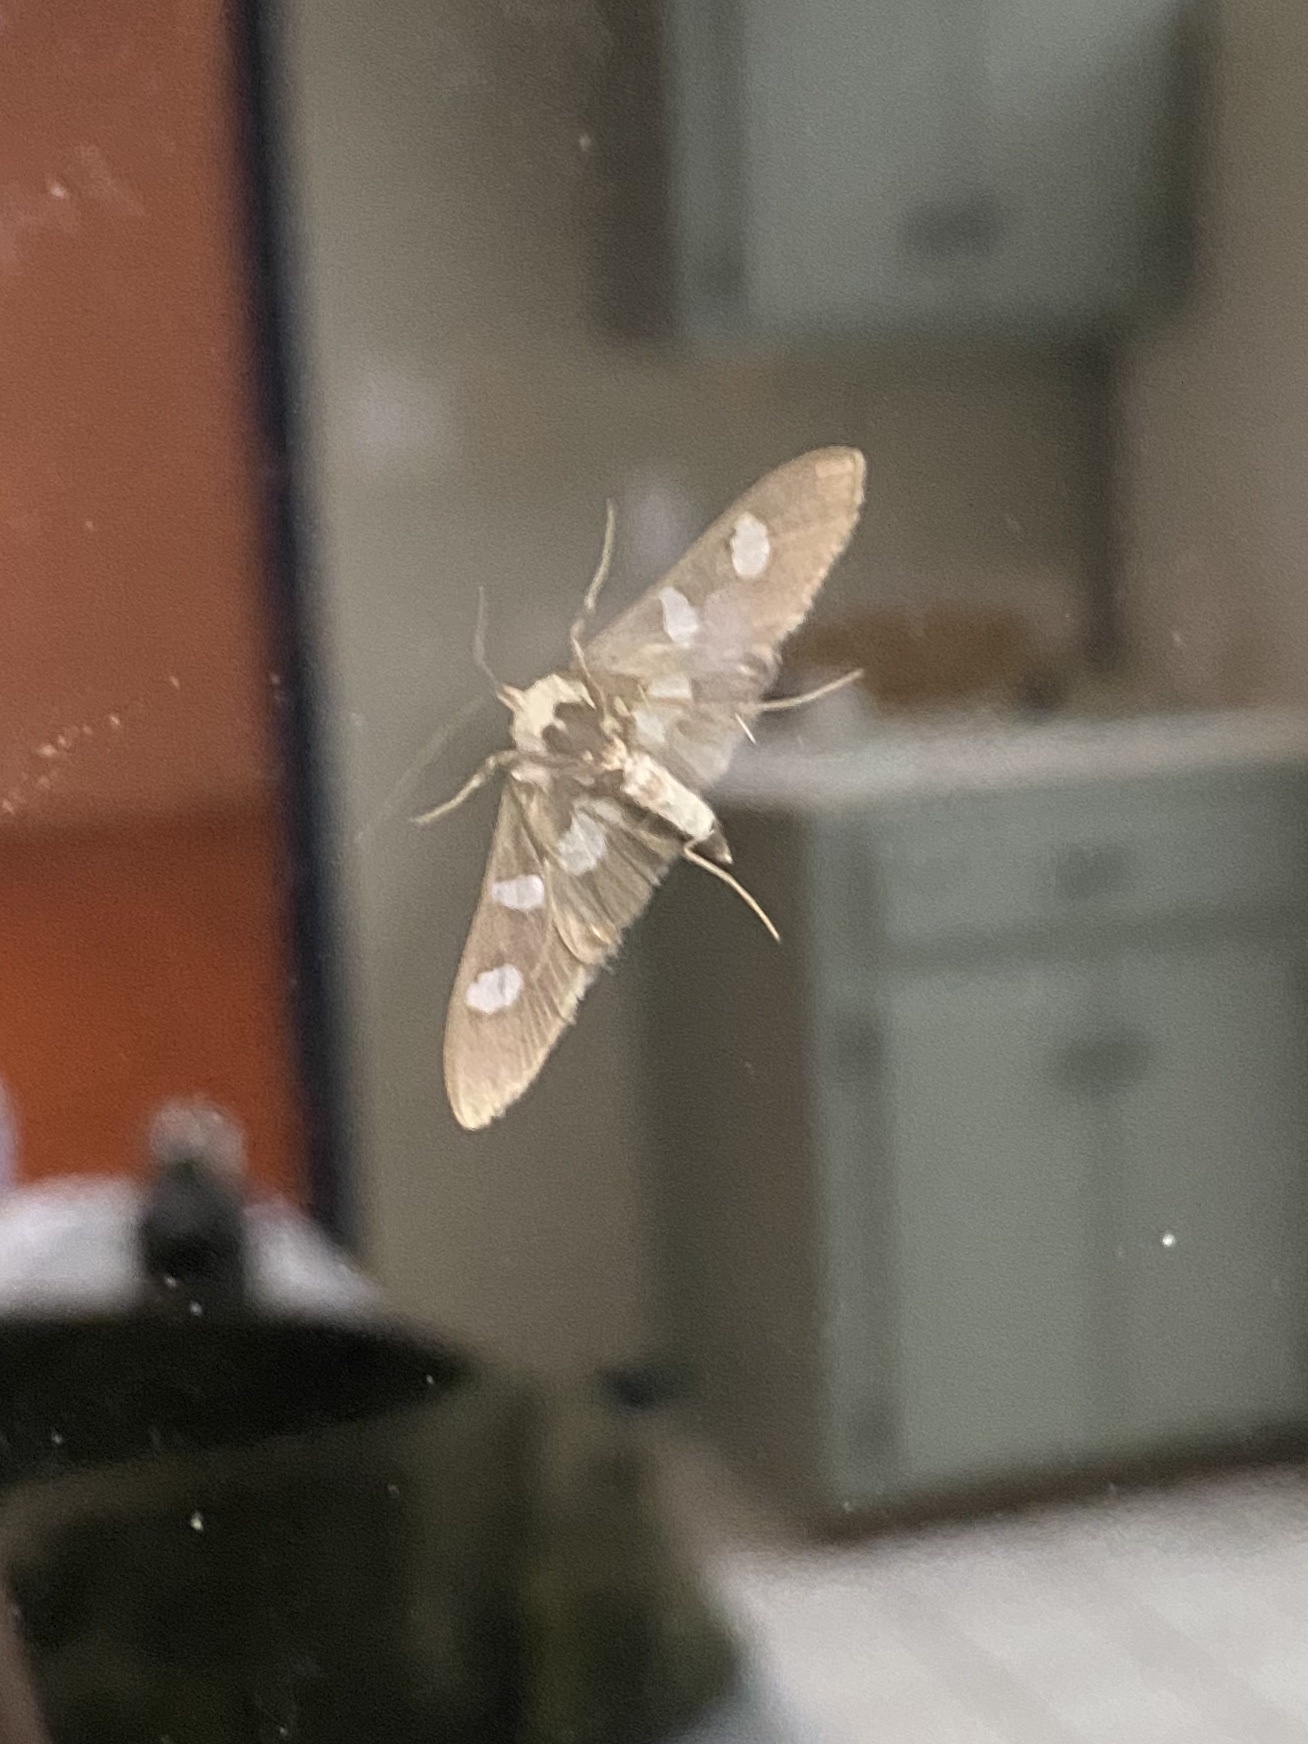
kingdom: Animalia
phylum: Arthropoda
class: Insecta
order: Lepidoptera
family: Crambidae
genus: Desmia
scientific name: Desmia funeralis
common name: Grape leaf folder moth
